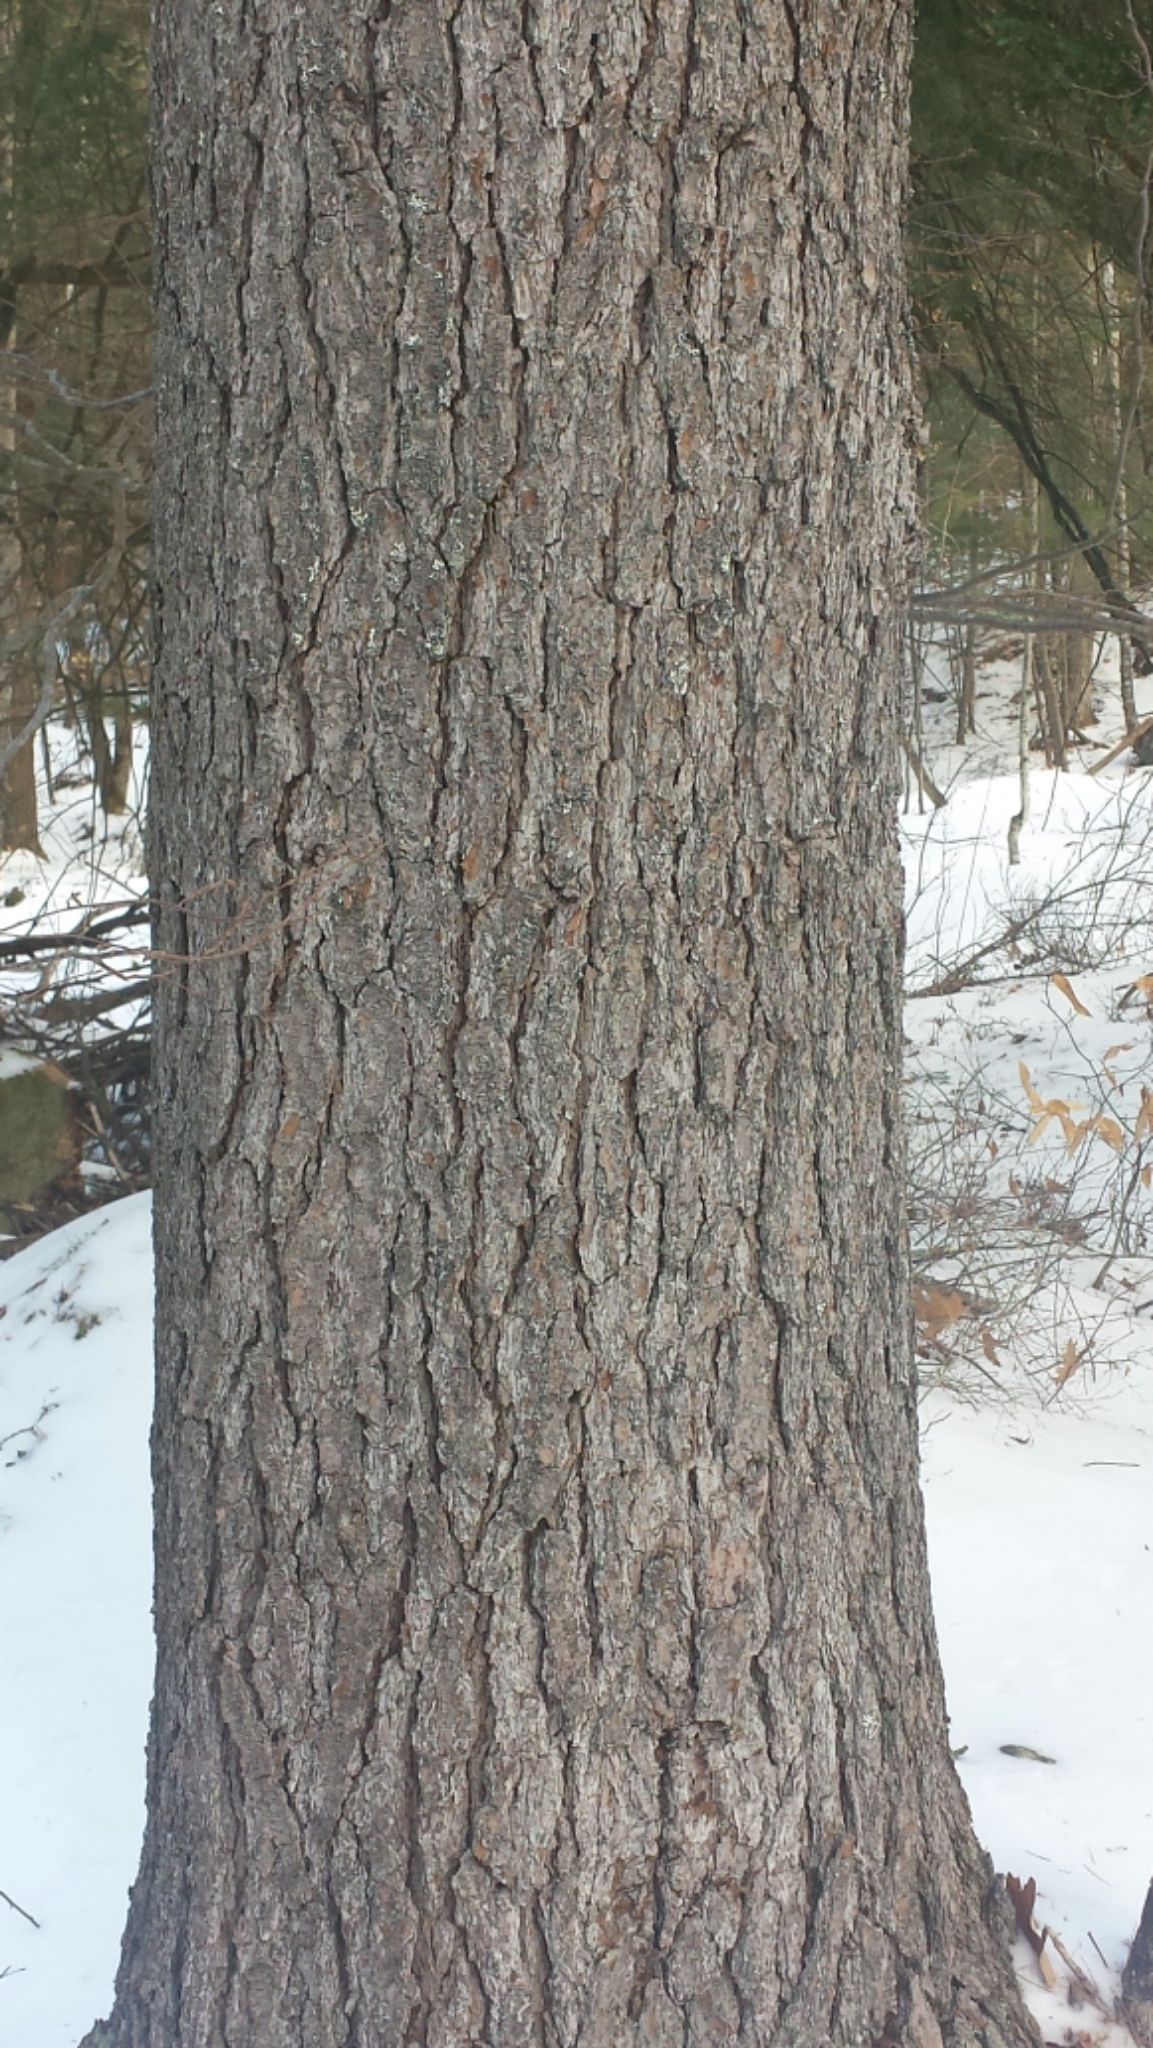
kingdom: Plantae
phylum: Tracheophyta
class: Pinopsida
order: Pinales
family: Pinaceae
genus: Pinus
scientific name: Pinus strobus
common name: Weymouth pine
